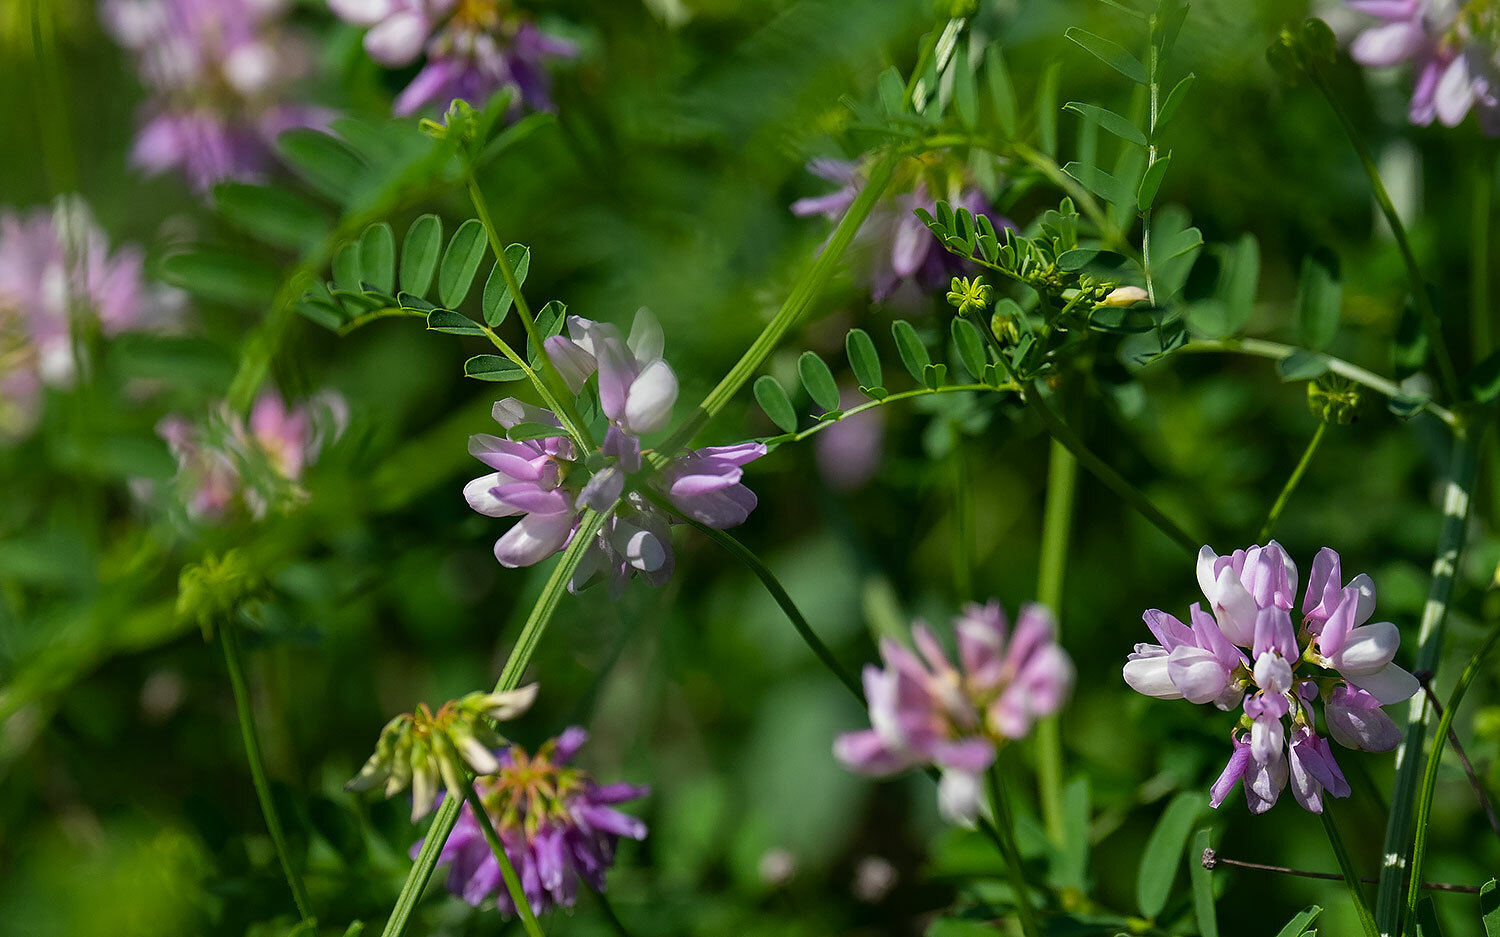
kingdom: Plantae
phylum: Tracheophyta
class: Magnoliopsida
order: Fabales
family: Fabaceae
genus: Coronilla
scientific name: Coronilla varia
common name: Crownvetch
